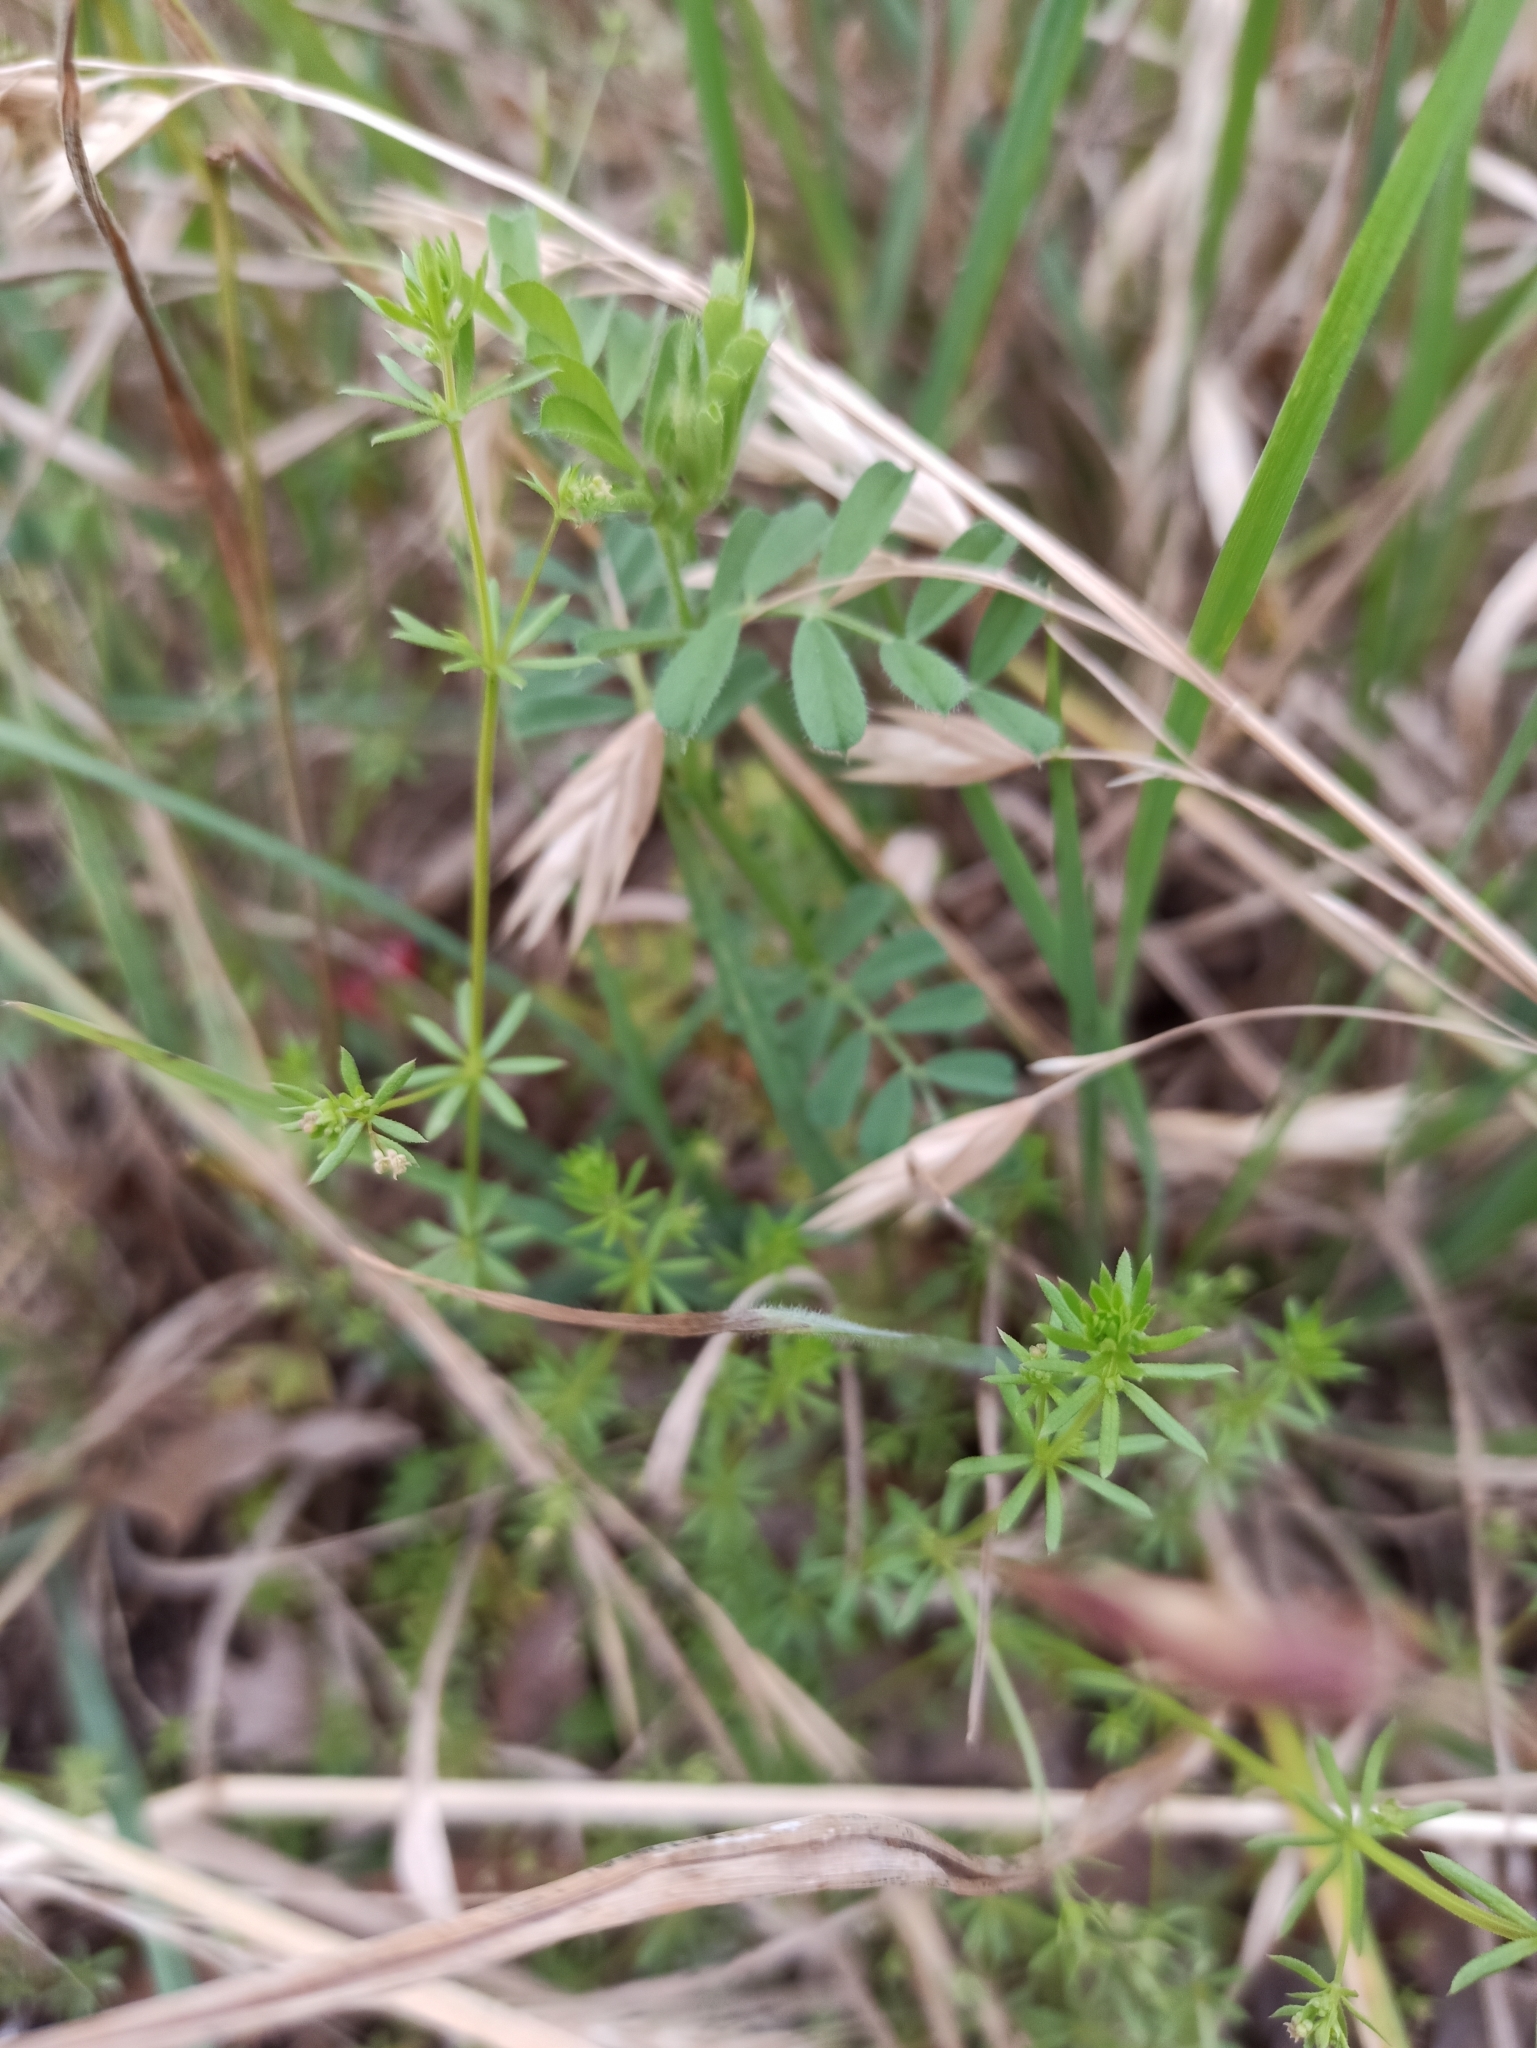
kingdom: Plantae
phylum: Tracheophyta
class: Magnoliopsida
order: Gentianales
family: Rubiaceae
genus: Galium
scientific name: Galium divaricatum
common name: Lamarck's bedstraw
